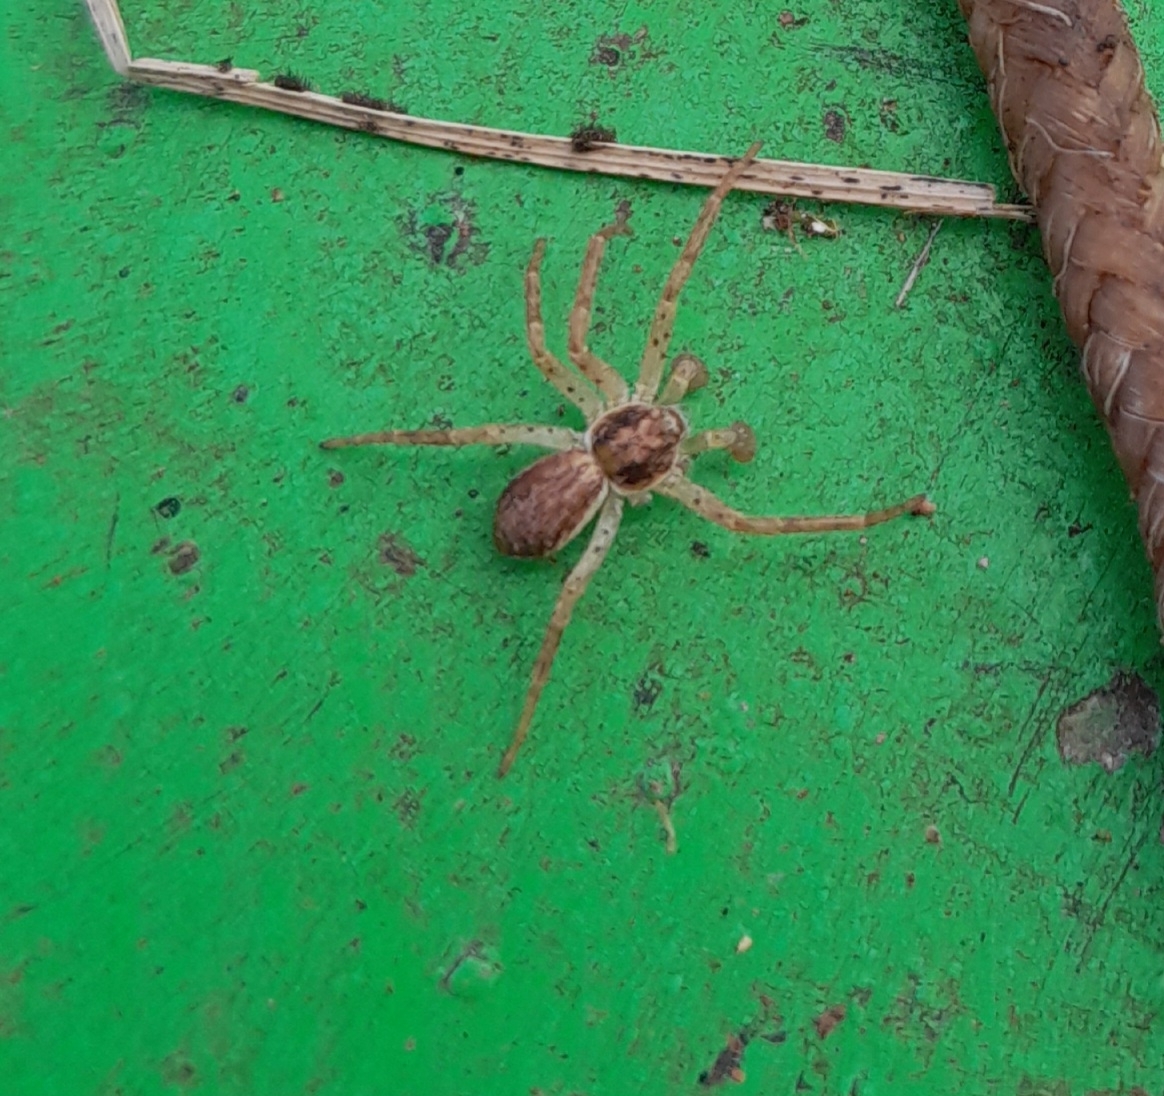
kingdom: Animalia
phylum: Arthropoda
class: Arachnida
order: Araneae
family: Philodromidae
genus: Philodromus
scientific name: Philodromus dispar
